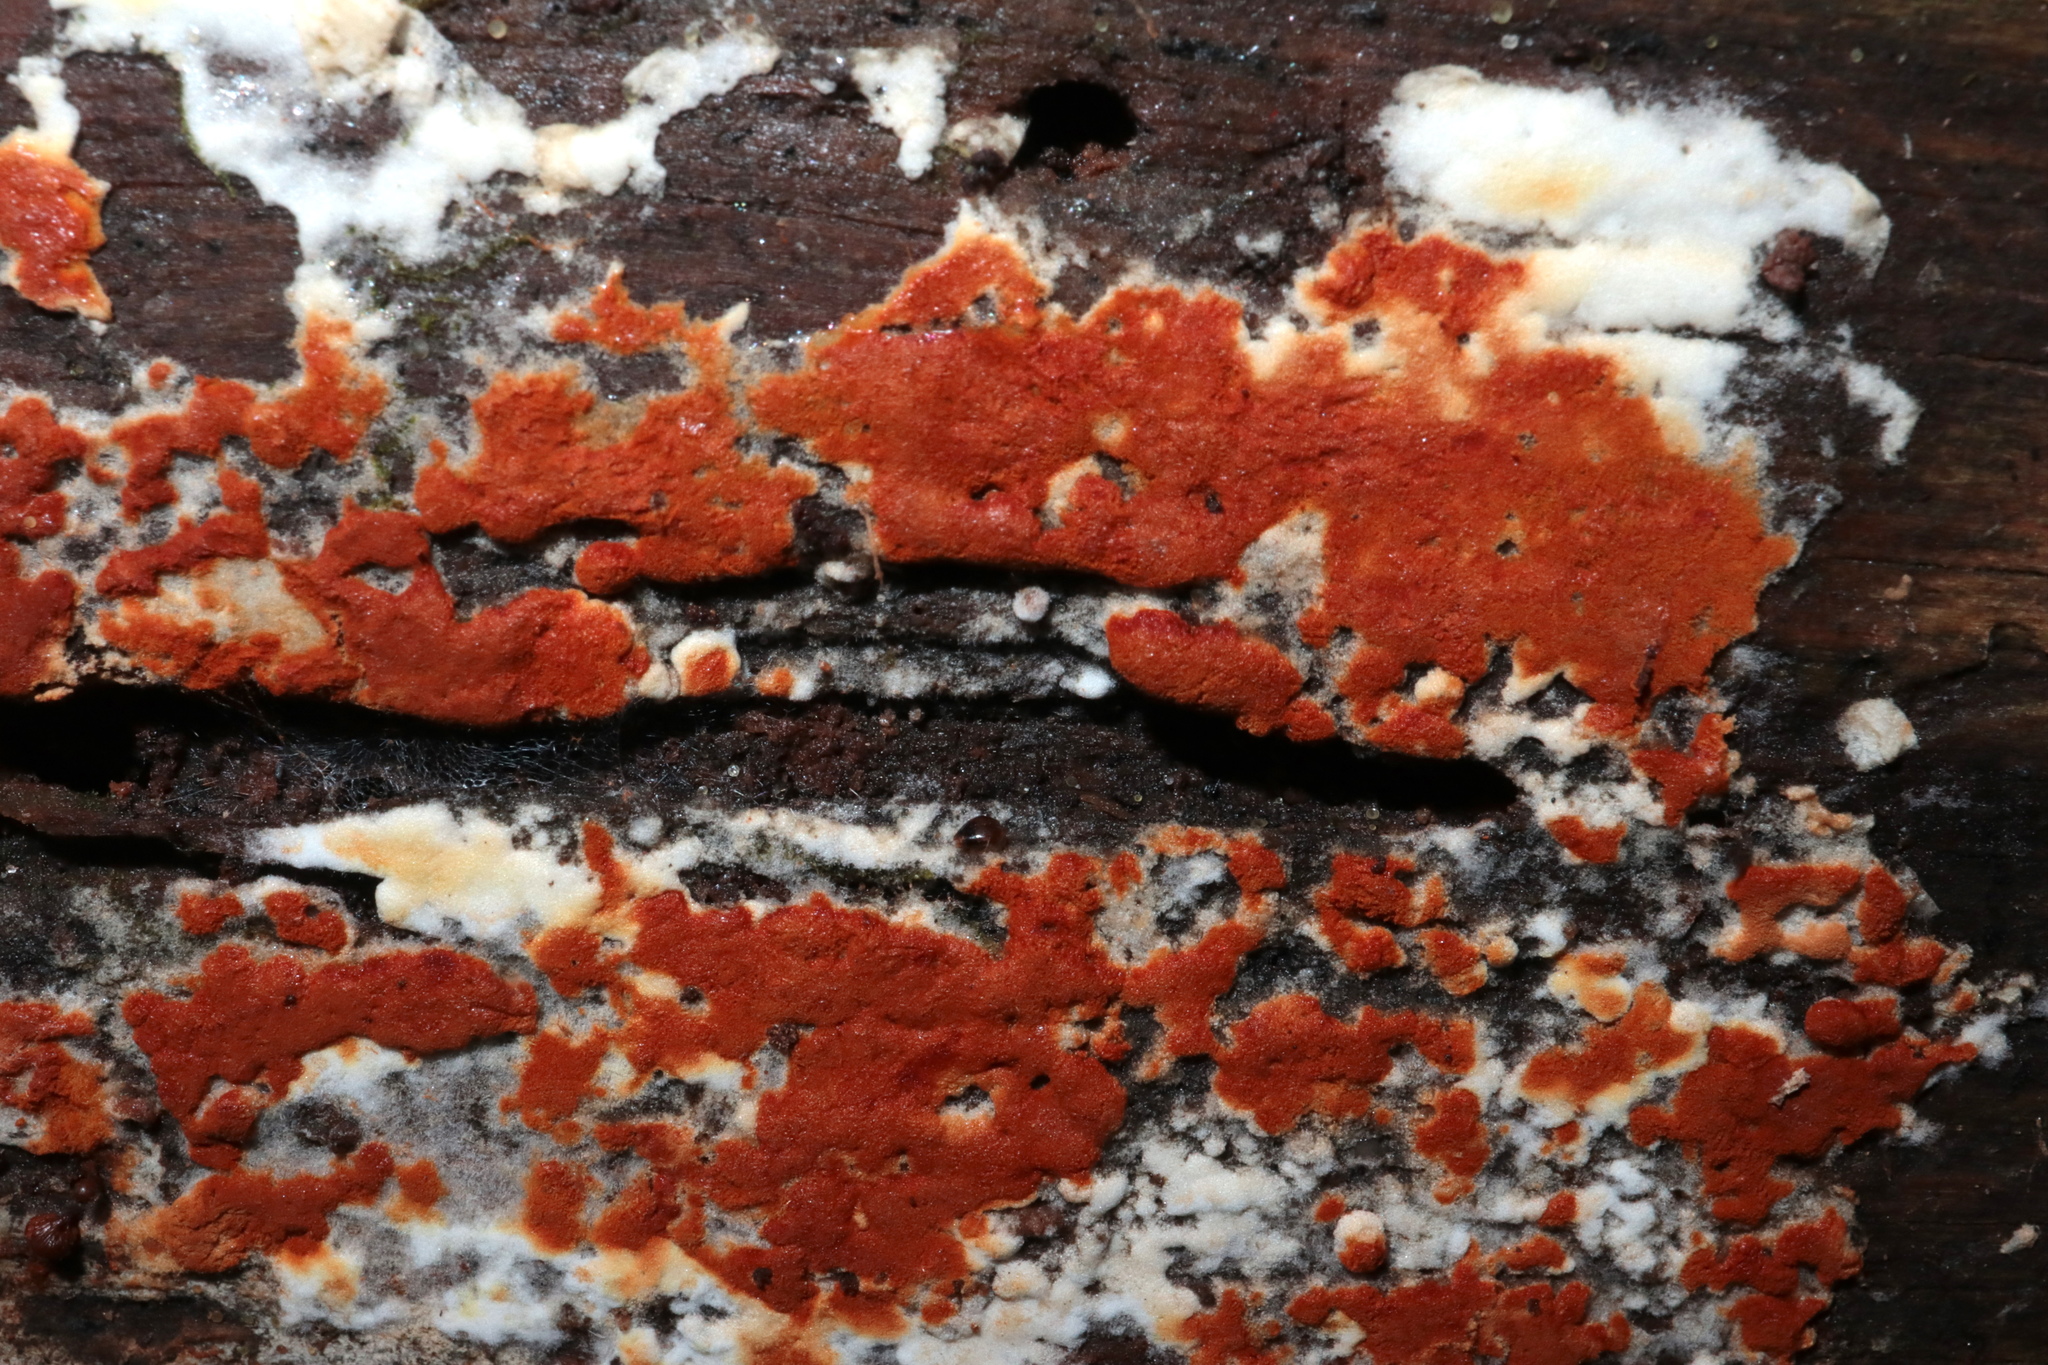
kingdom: Fungi
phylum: Basidiomycota
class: Agaricomycetes
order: Cantharellales
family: Botryobasidiaceae
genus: Botryobasidium
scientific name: Botryobasidium aureum
